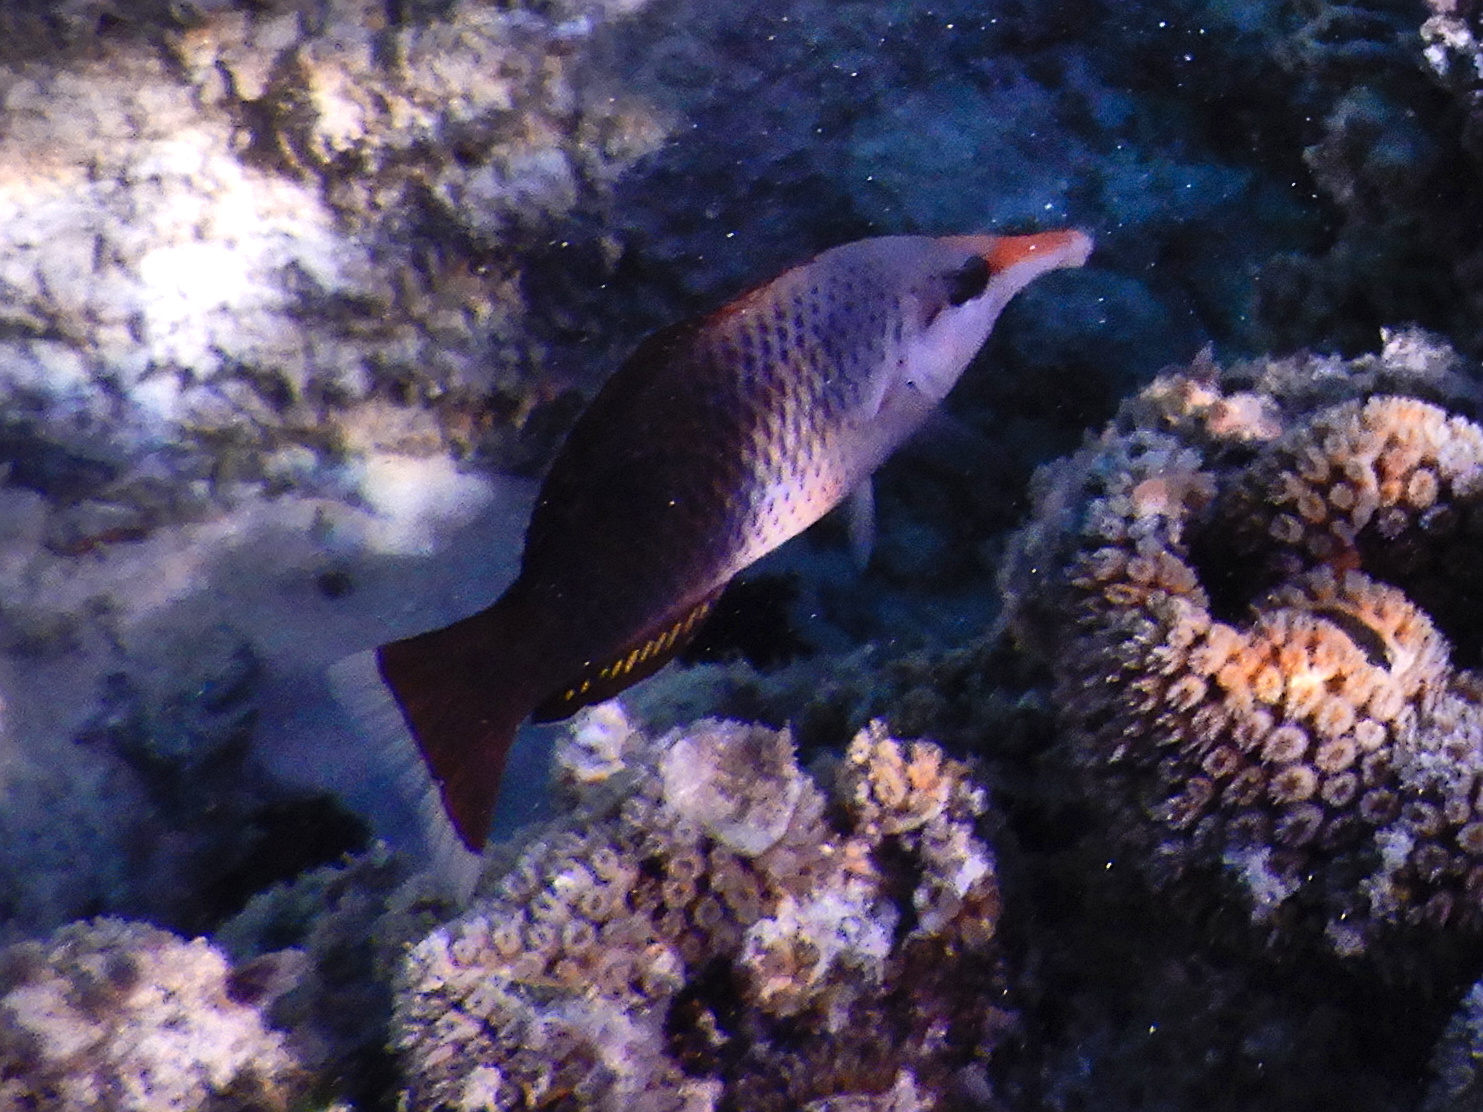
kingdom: Animalia
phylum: Chordata
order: Perciformes
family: Labridae
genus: Gomphosus
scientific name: Gomphosus varius
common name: Bird wrasse
